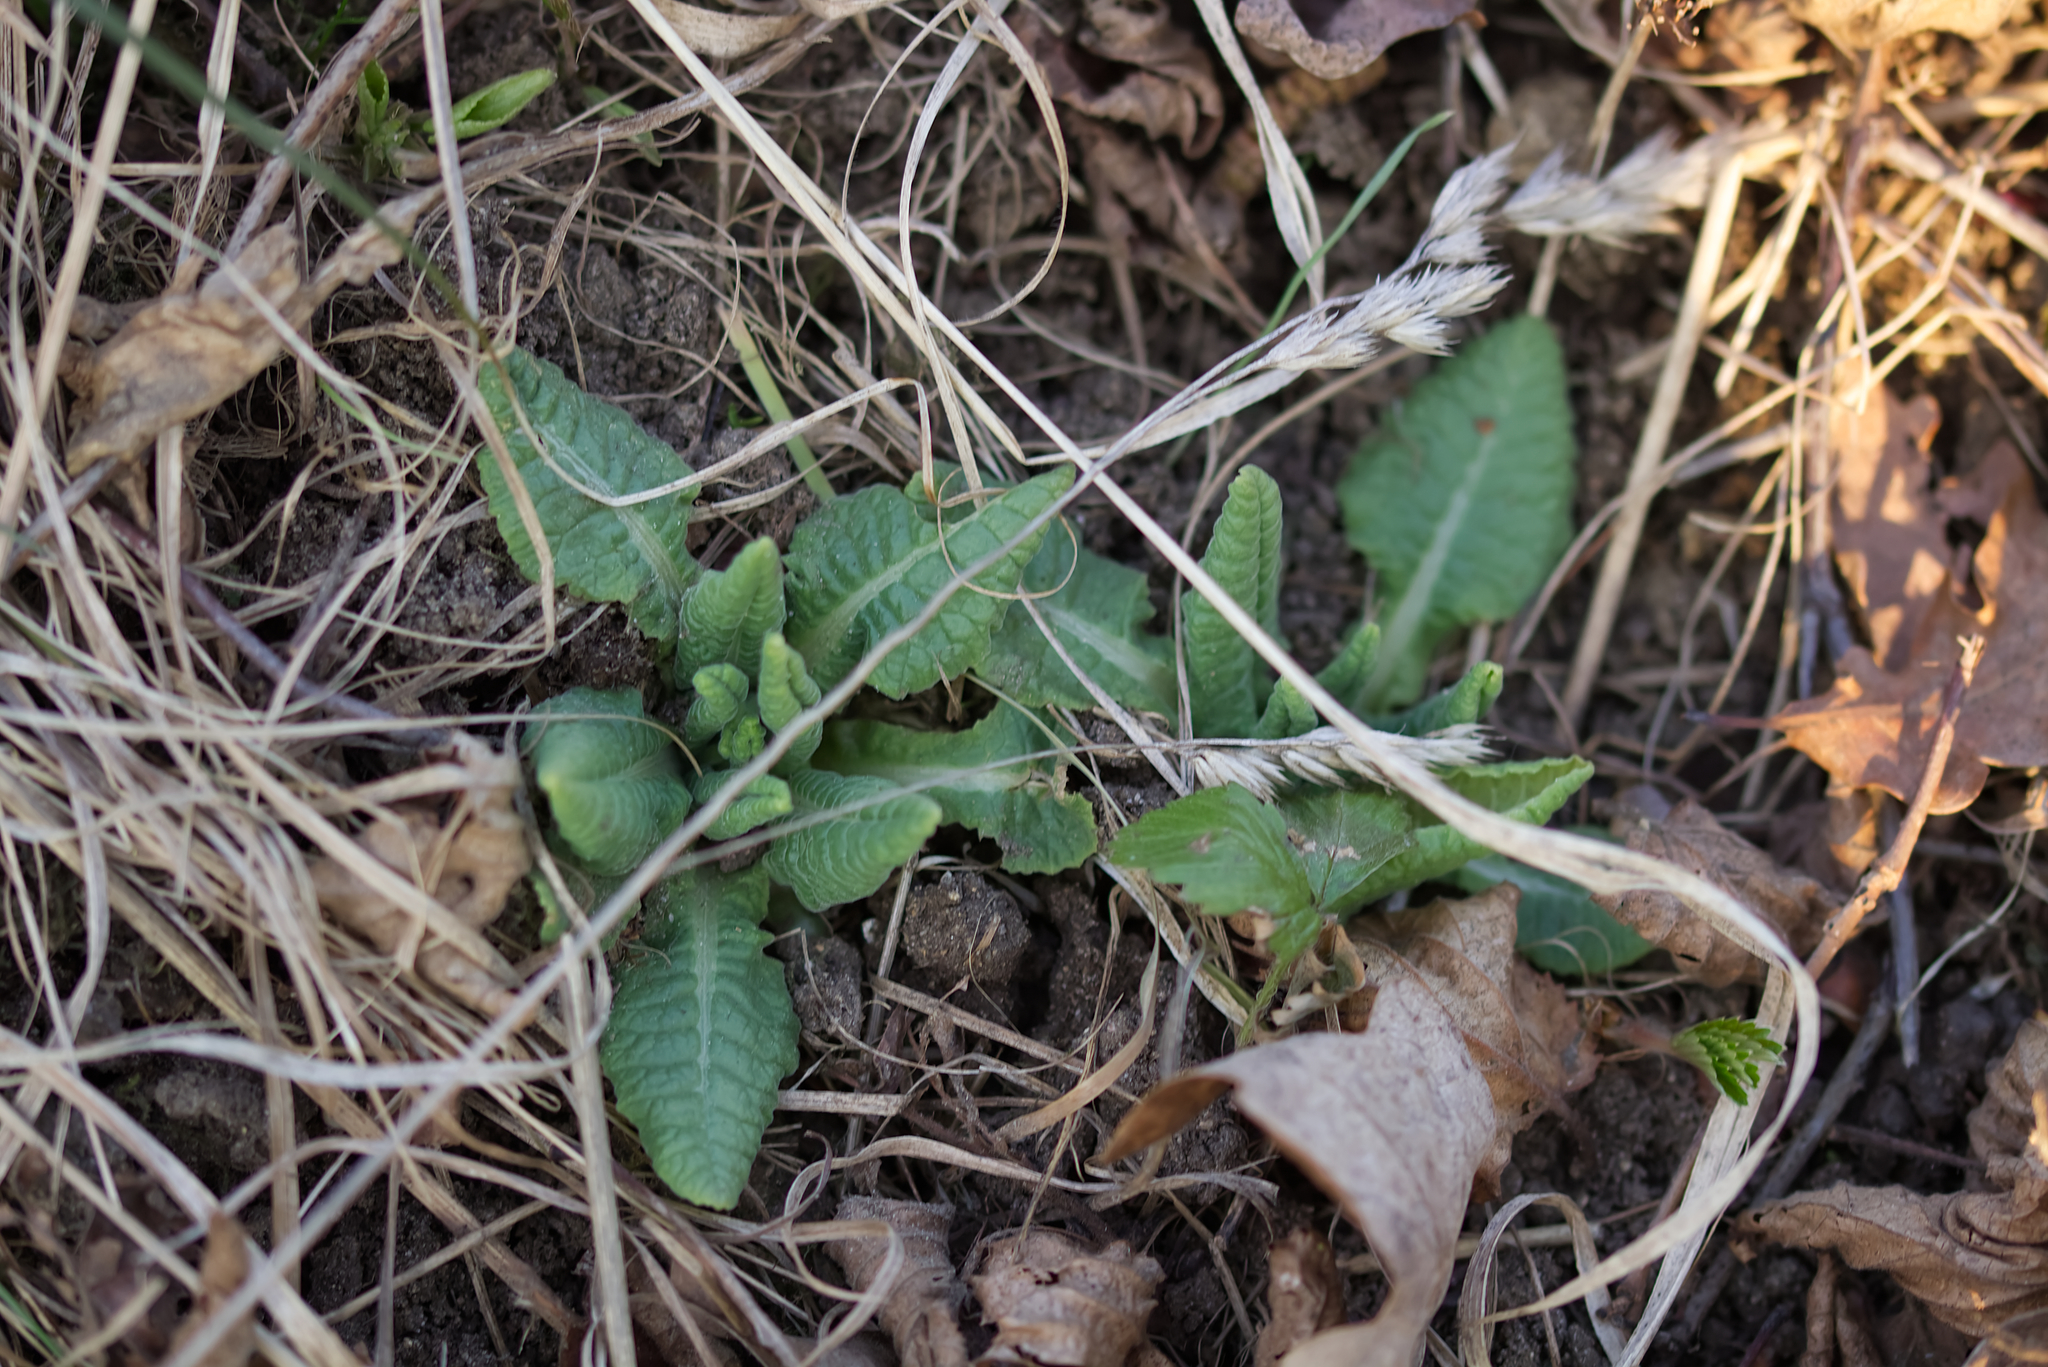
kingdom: Plantae
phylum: Tracheophyta
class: Magnoliopsida
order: Ericales
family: Primulaceae
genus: Primula
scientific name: Primula elatior
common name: Oxlip
